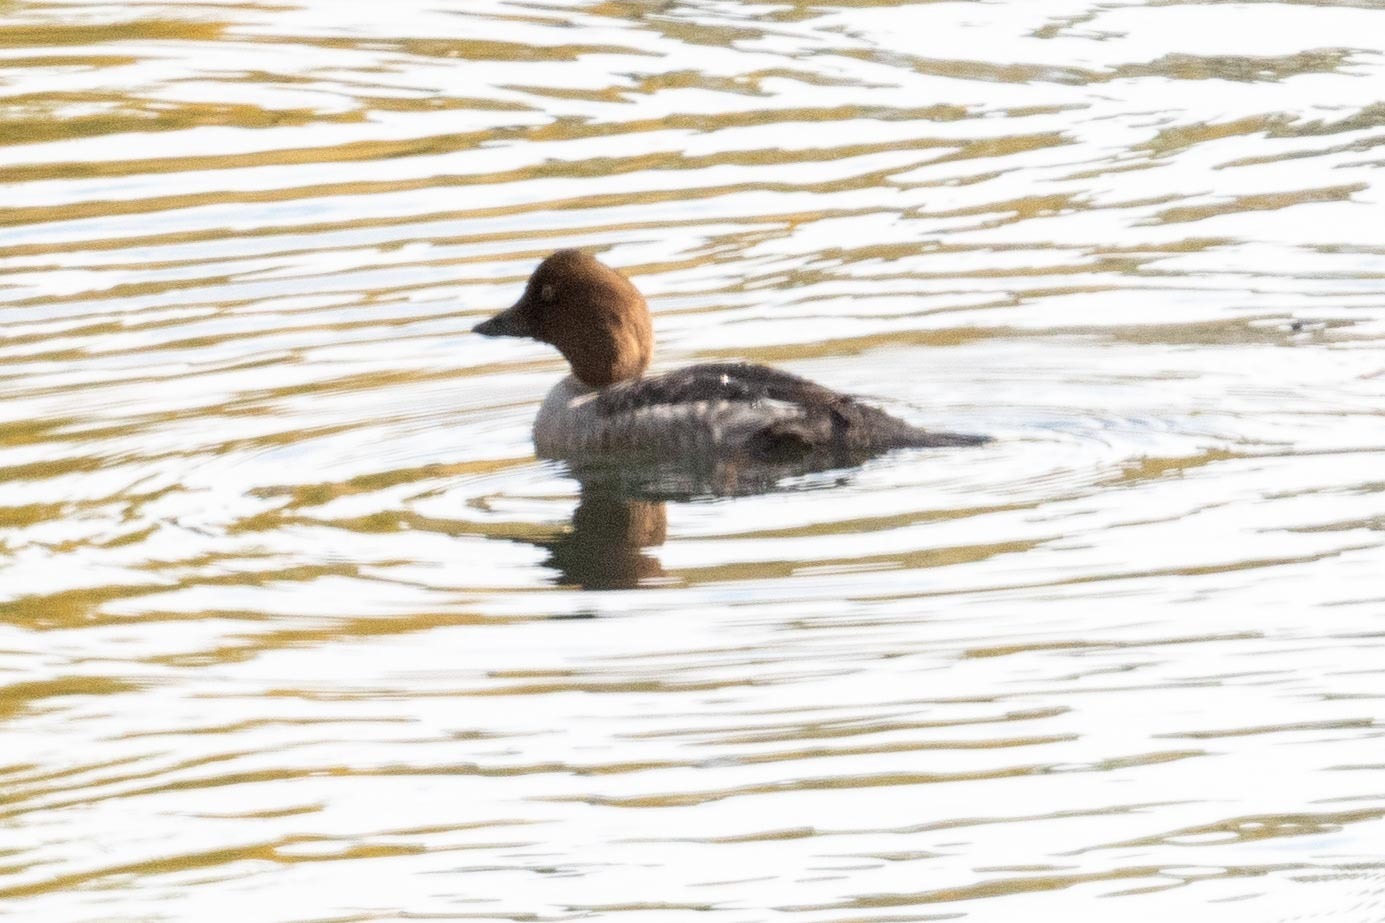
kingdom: Animalia
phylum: Chordata
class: Aves
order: Anseriformes
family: Anatidae
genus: Bucephala
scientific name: Bucephala clangula
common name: Common goldeneye
